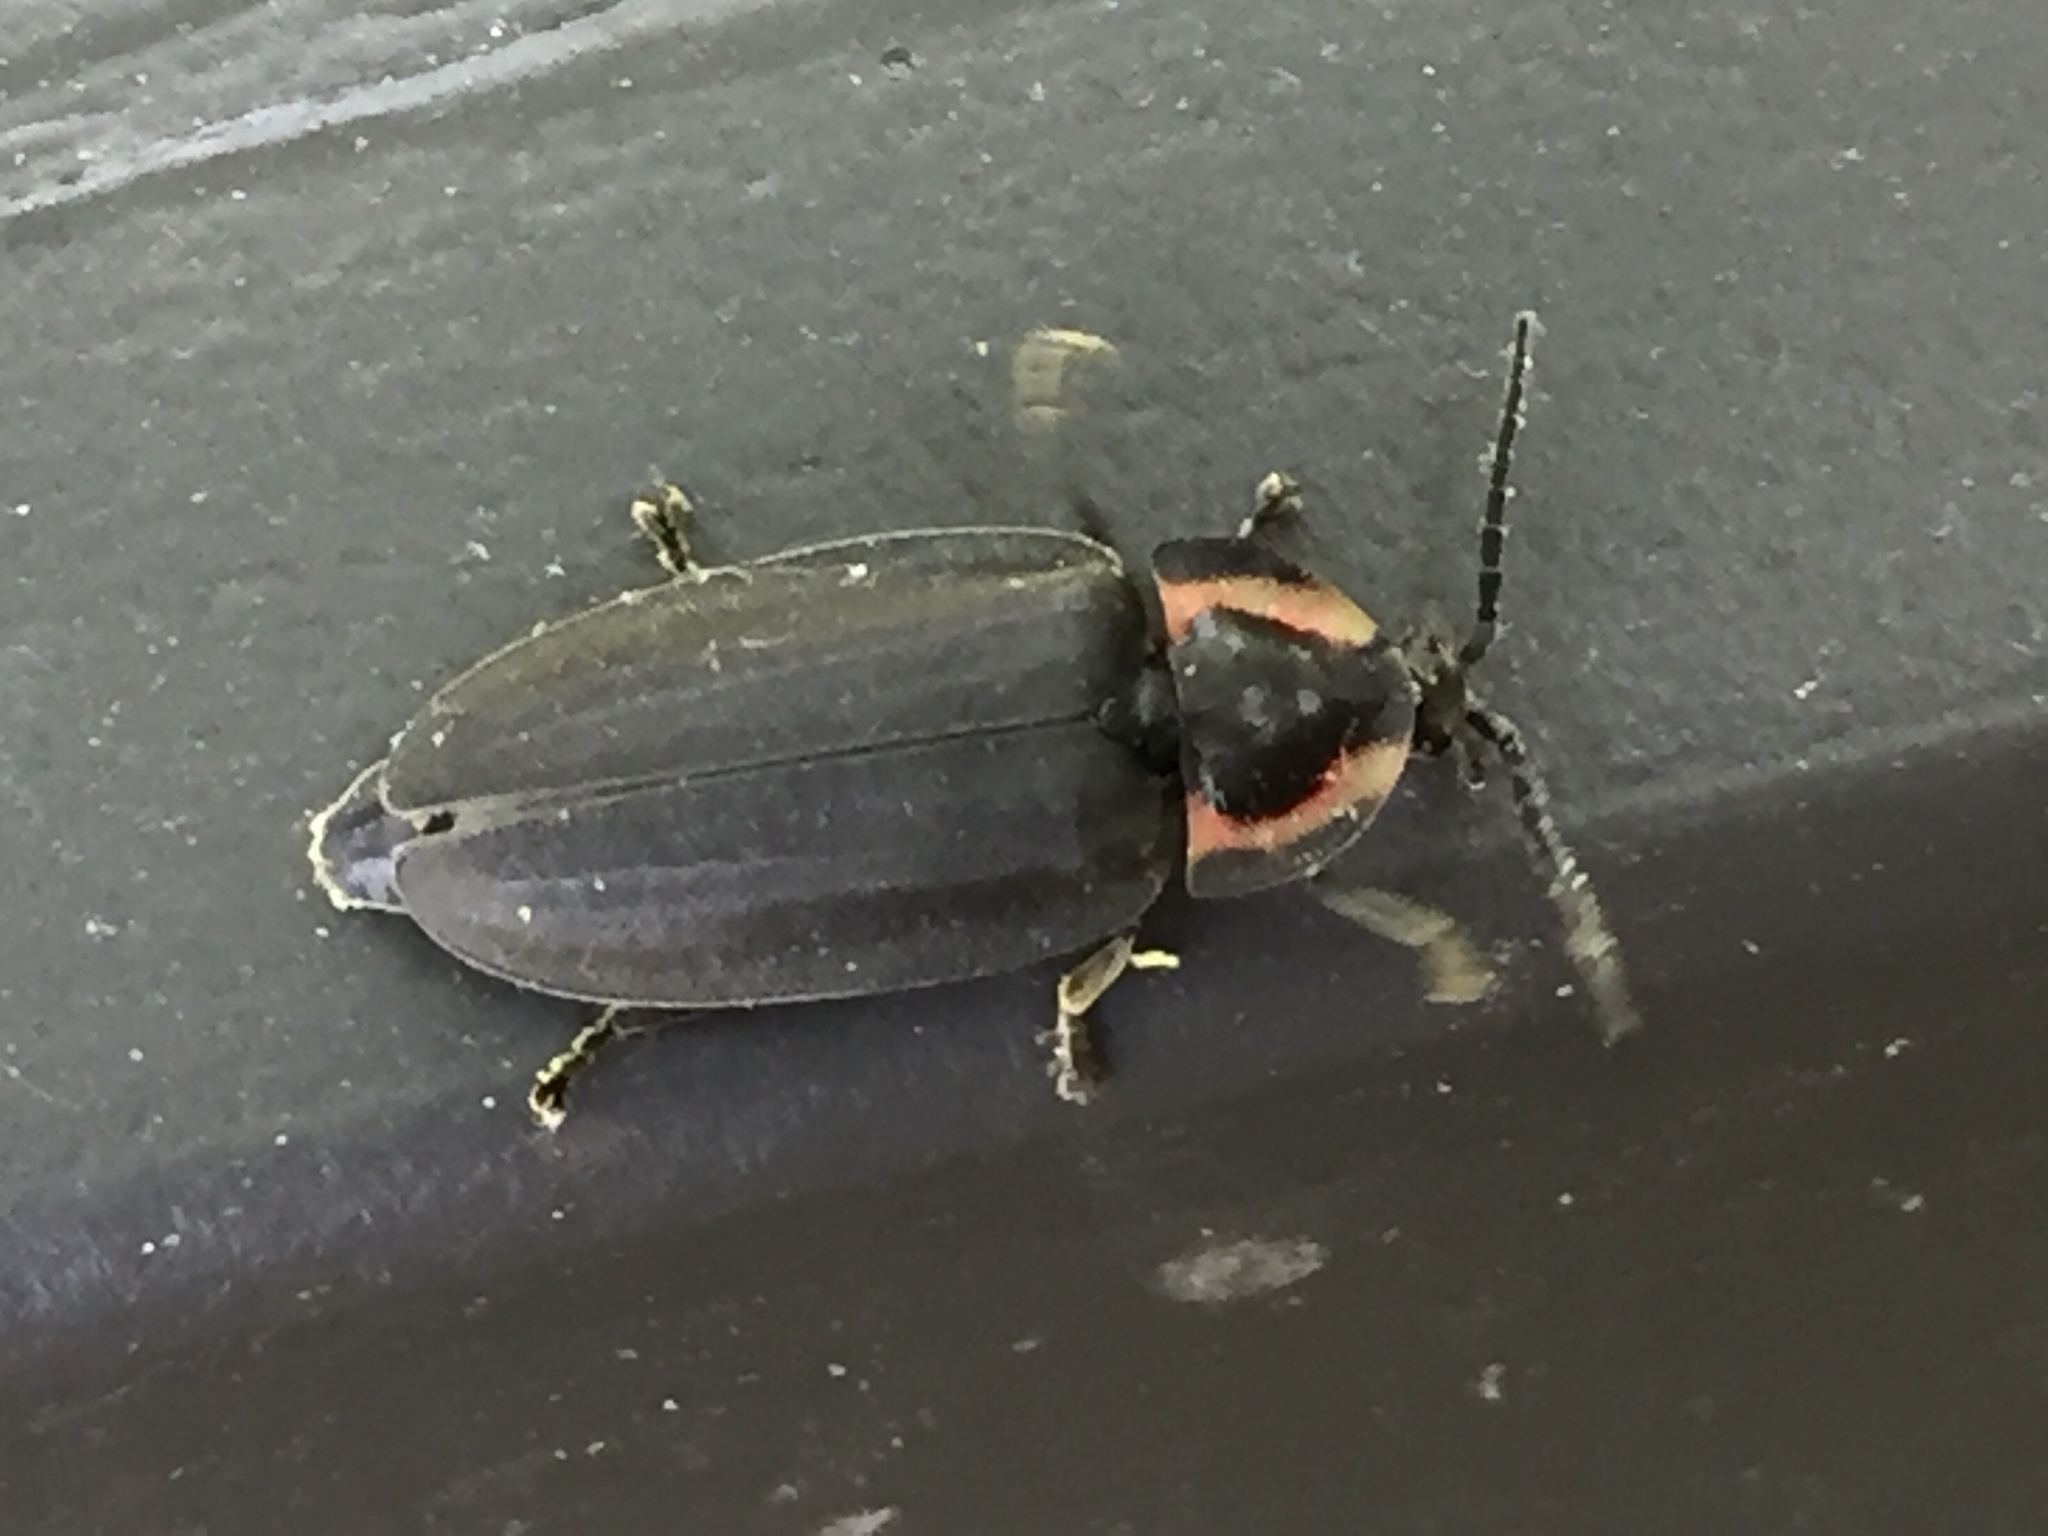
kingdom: Animalia
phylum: Arthropoda
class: Insecta
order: Coleoptera
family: Lampyridae
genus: Photinus
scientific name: Photinus corrusca
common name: Winter firefly
